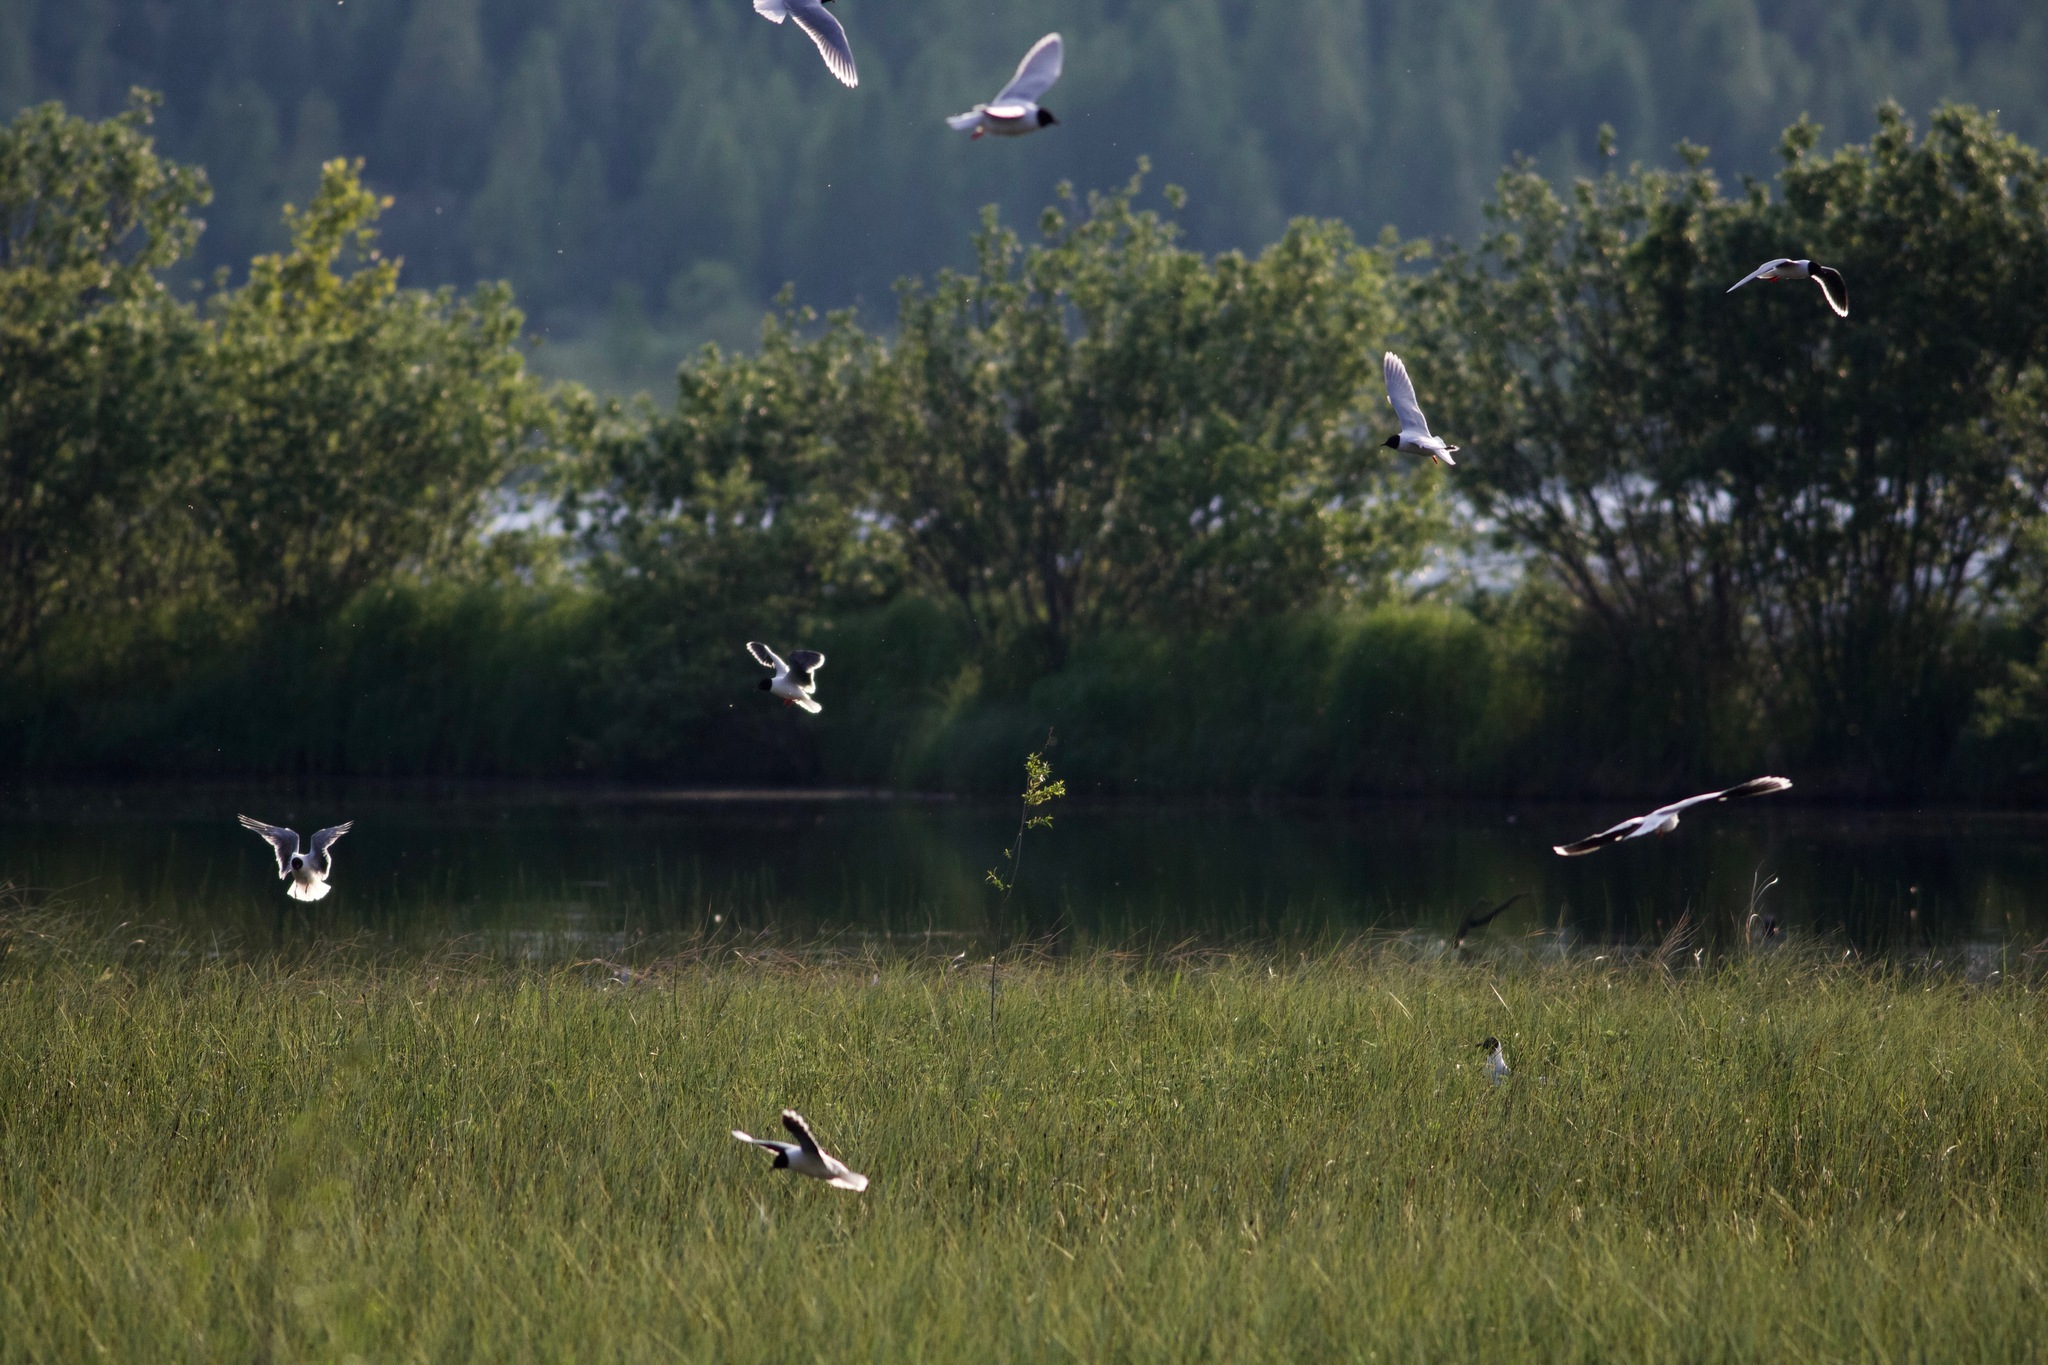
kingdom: Animalia
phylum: Chordata
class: Aves
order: Charadriiformes
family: Laridae
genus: Hydrocoloeus
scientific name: Hydrocoloeus minutus
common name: Little gull
